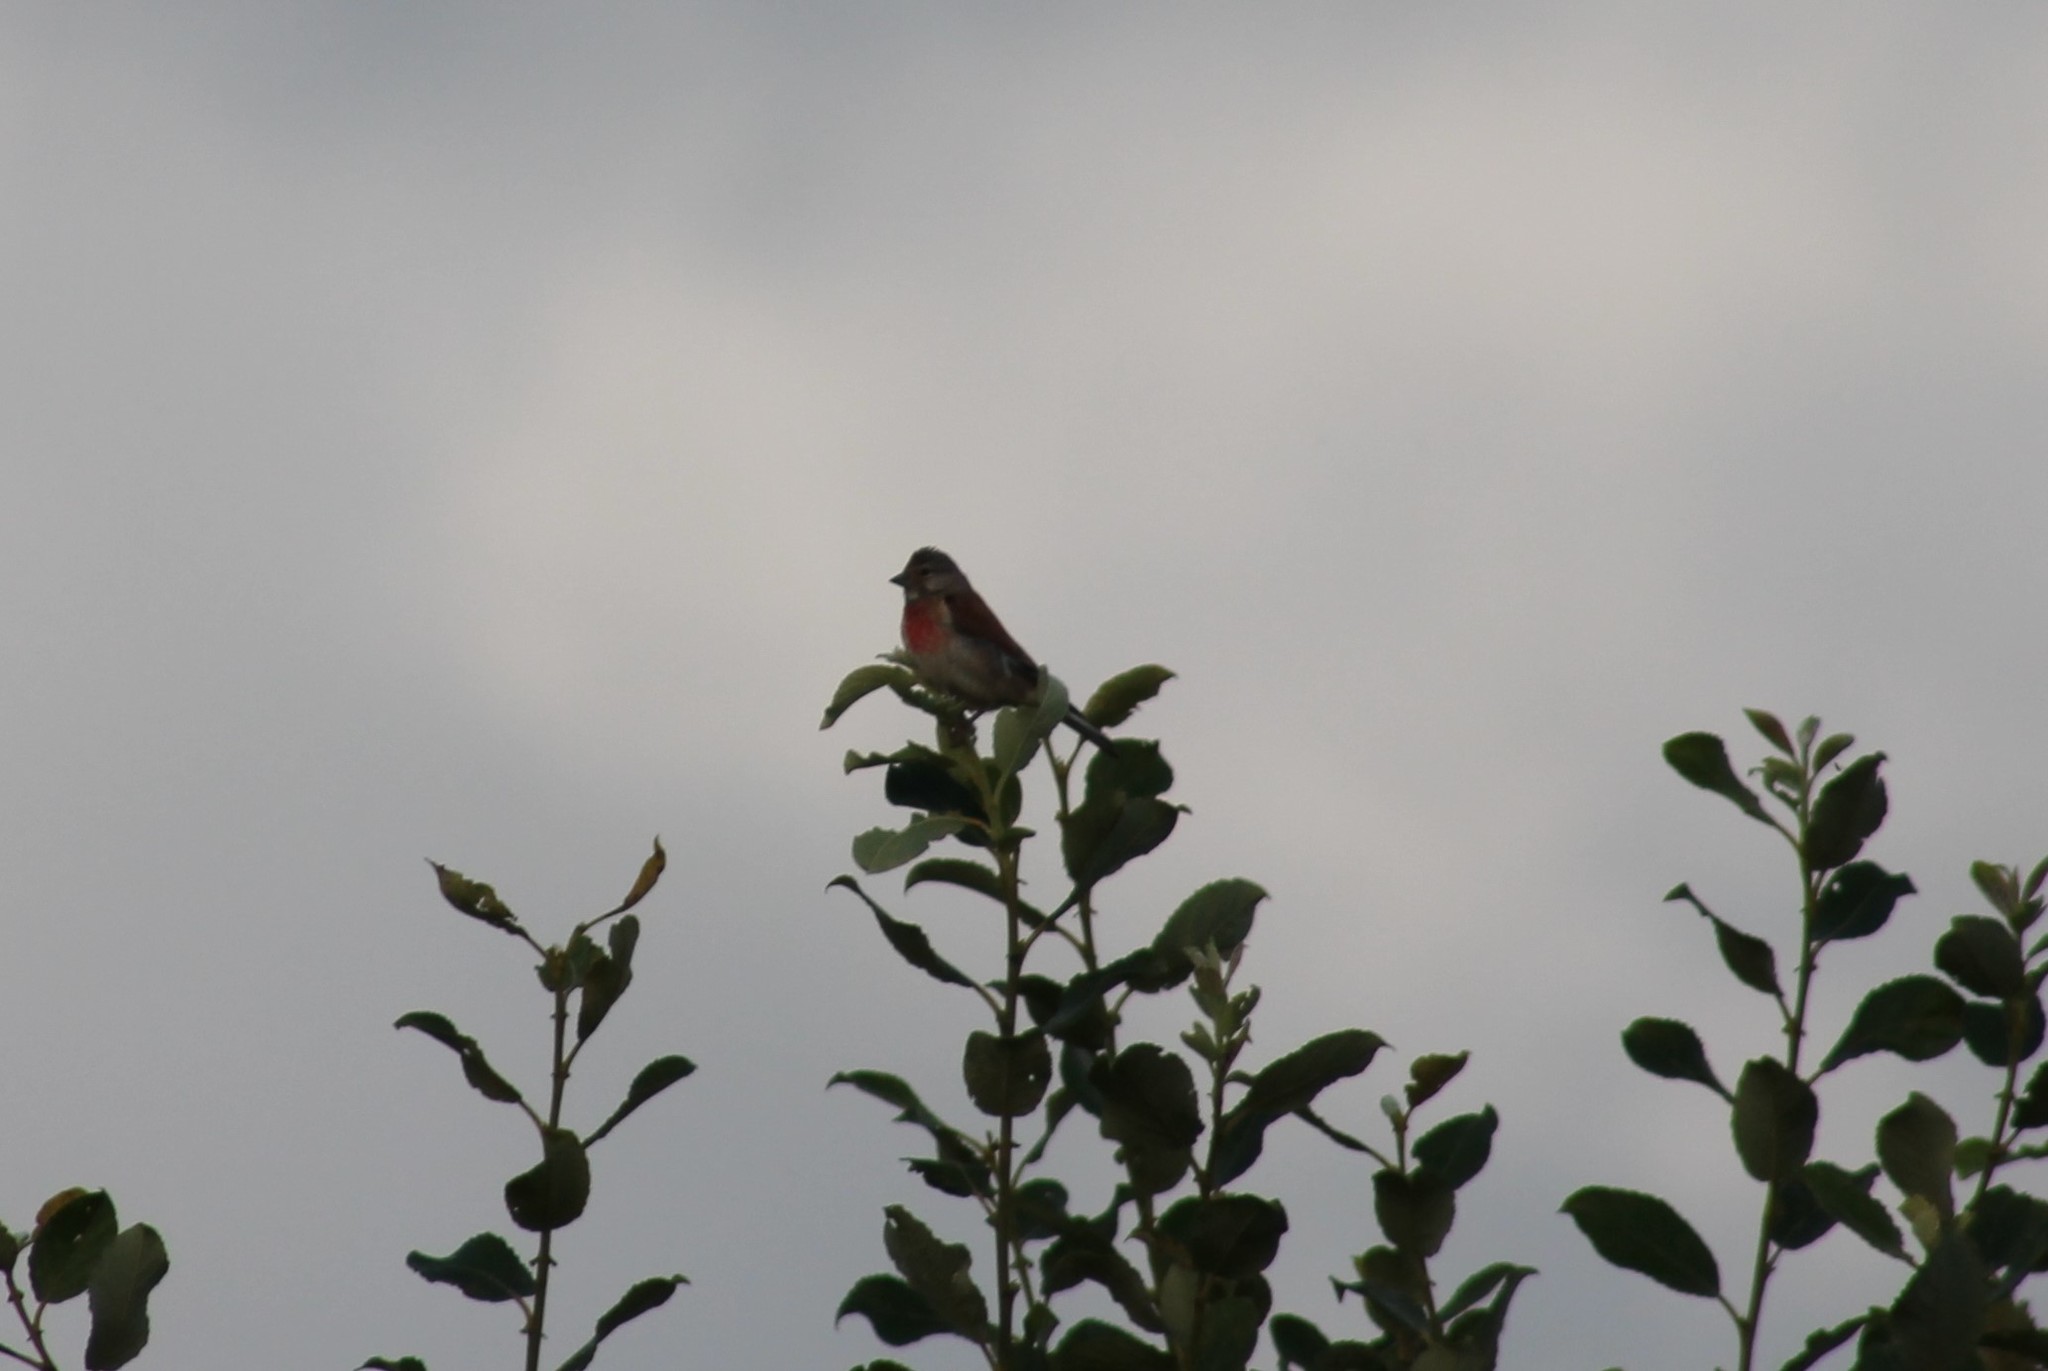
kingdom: Animalia
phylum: Chordata
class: Aves
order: Passeriformes
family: Fringillidae
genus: Linaria
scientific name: Linaria cannabina
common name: Common linnet
